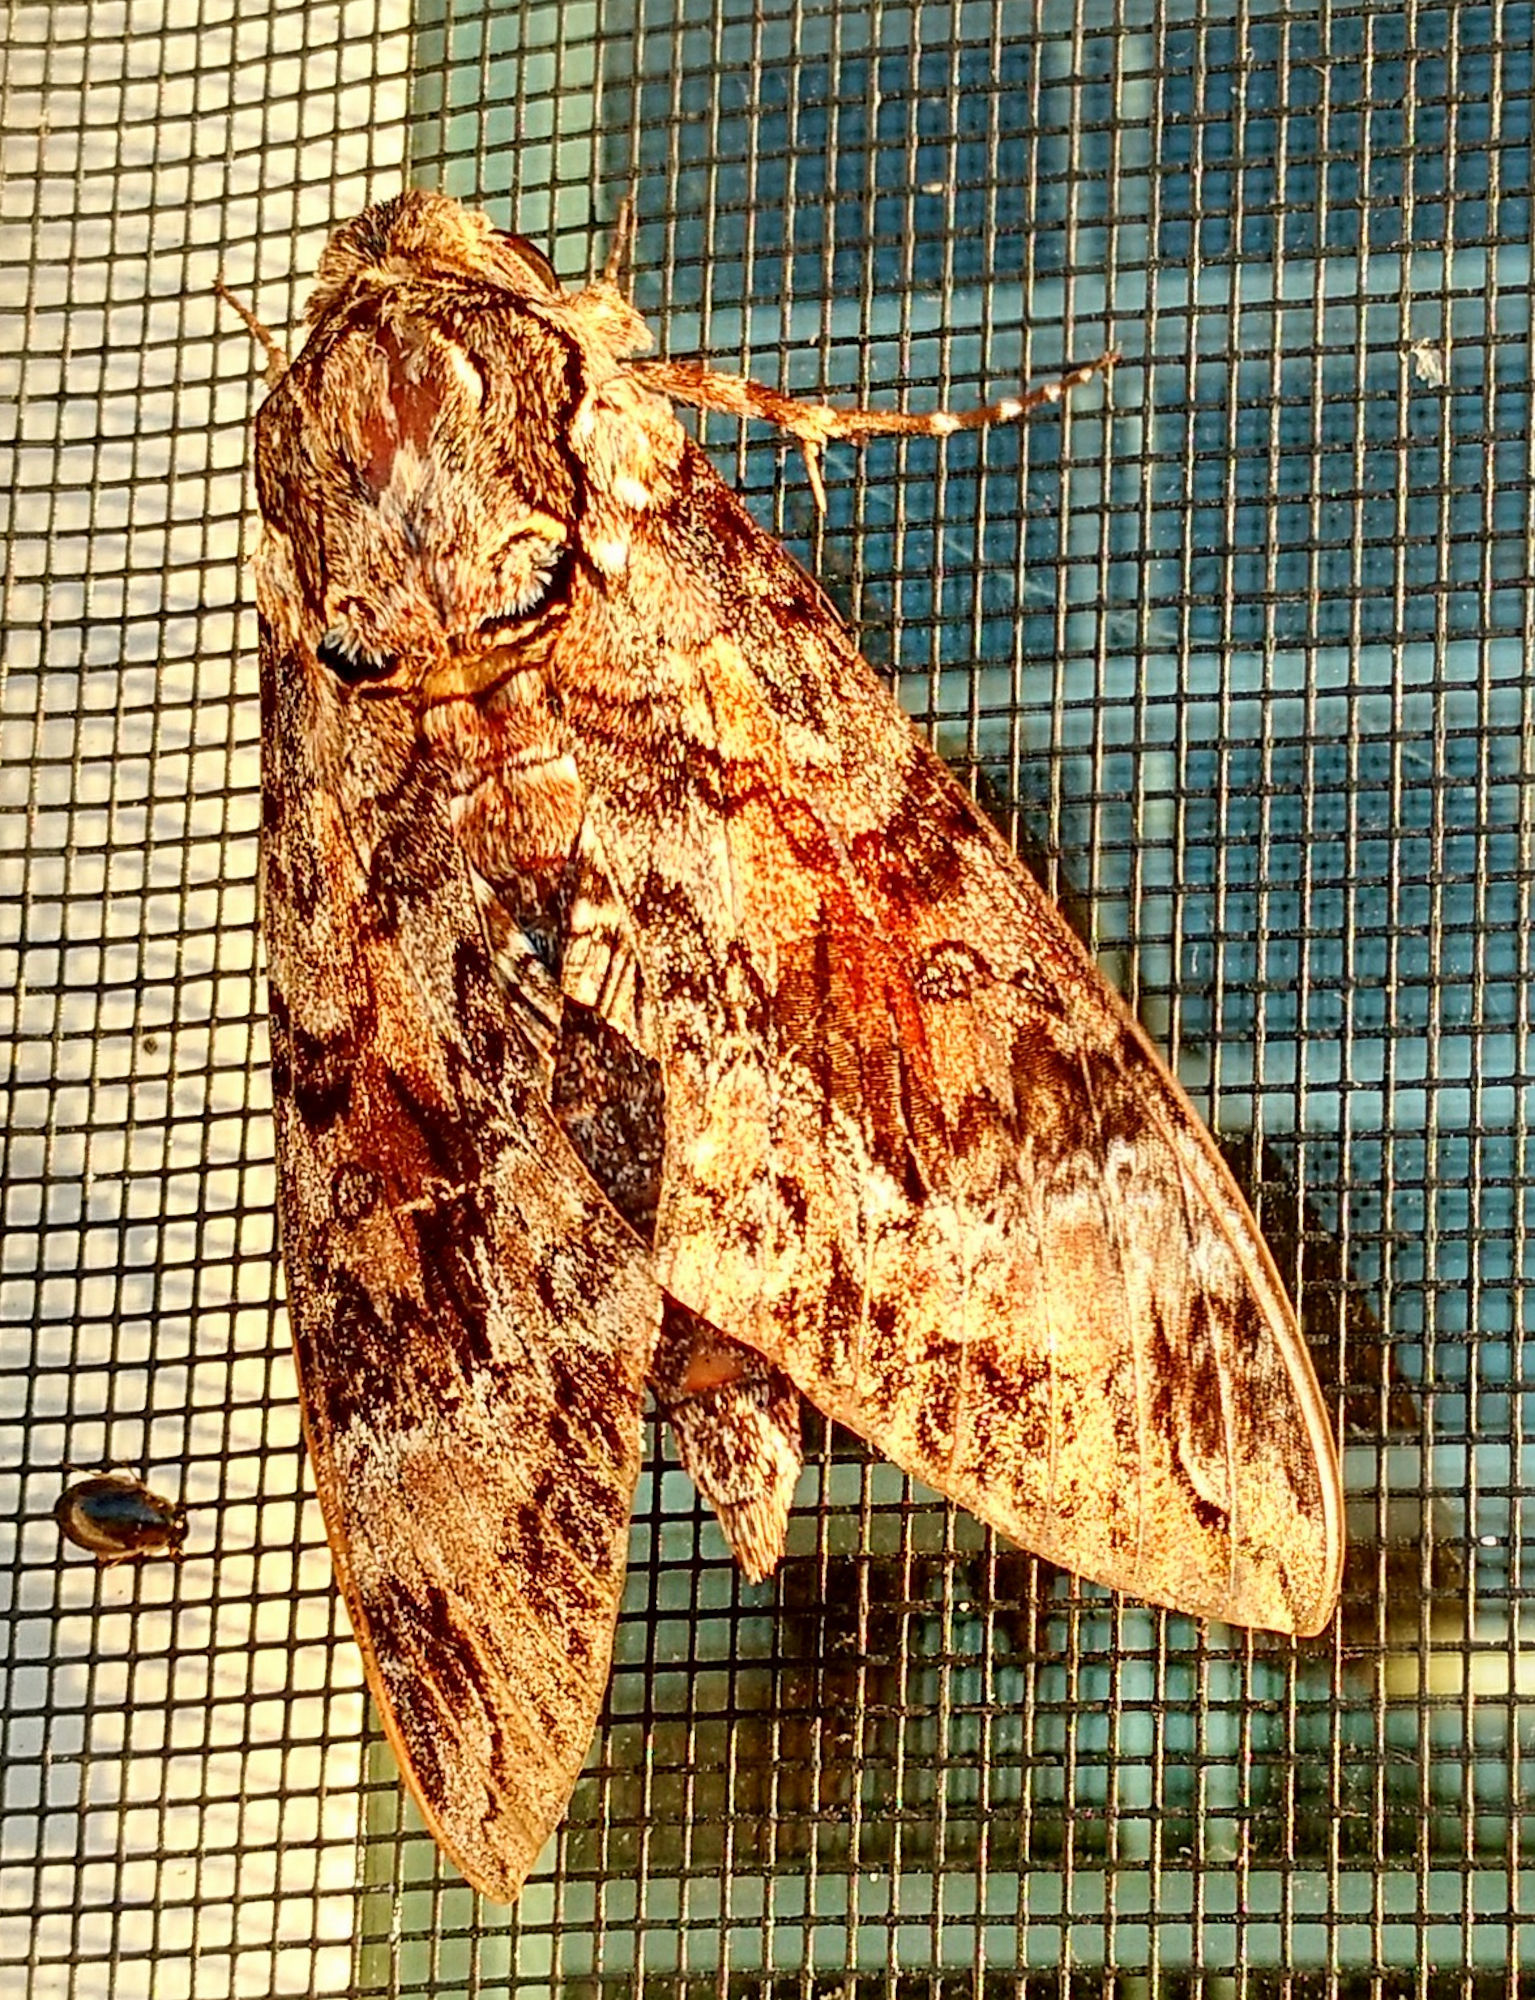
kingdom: Animalia
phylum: Arthropoda
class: Insecta
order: Lepidoptera
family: Sphingidae
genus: Agrius
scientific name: Agrius cingulata
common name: Pink-spotted hawkmoth
